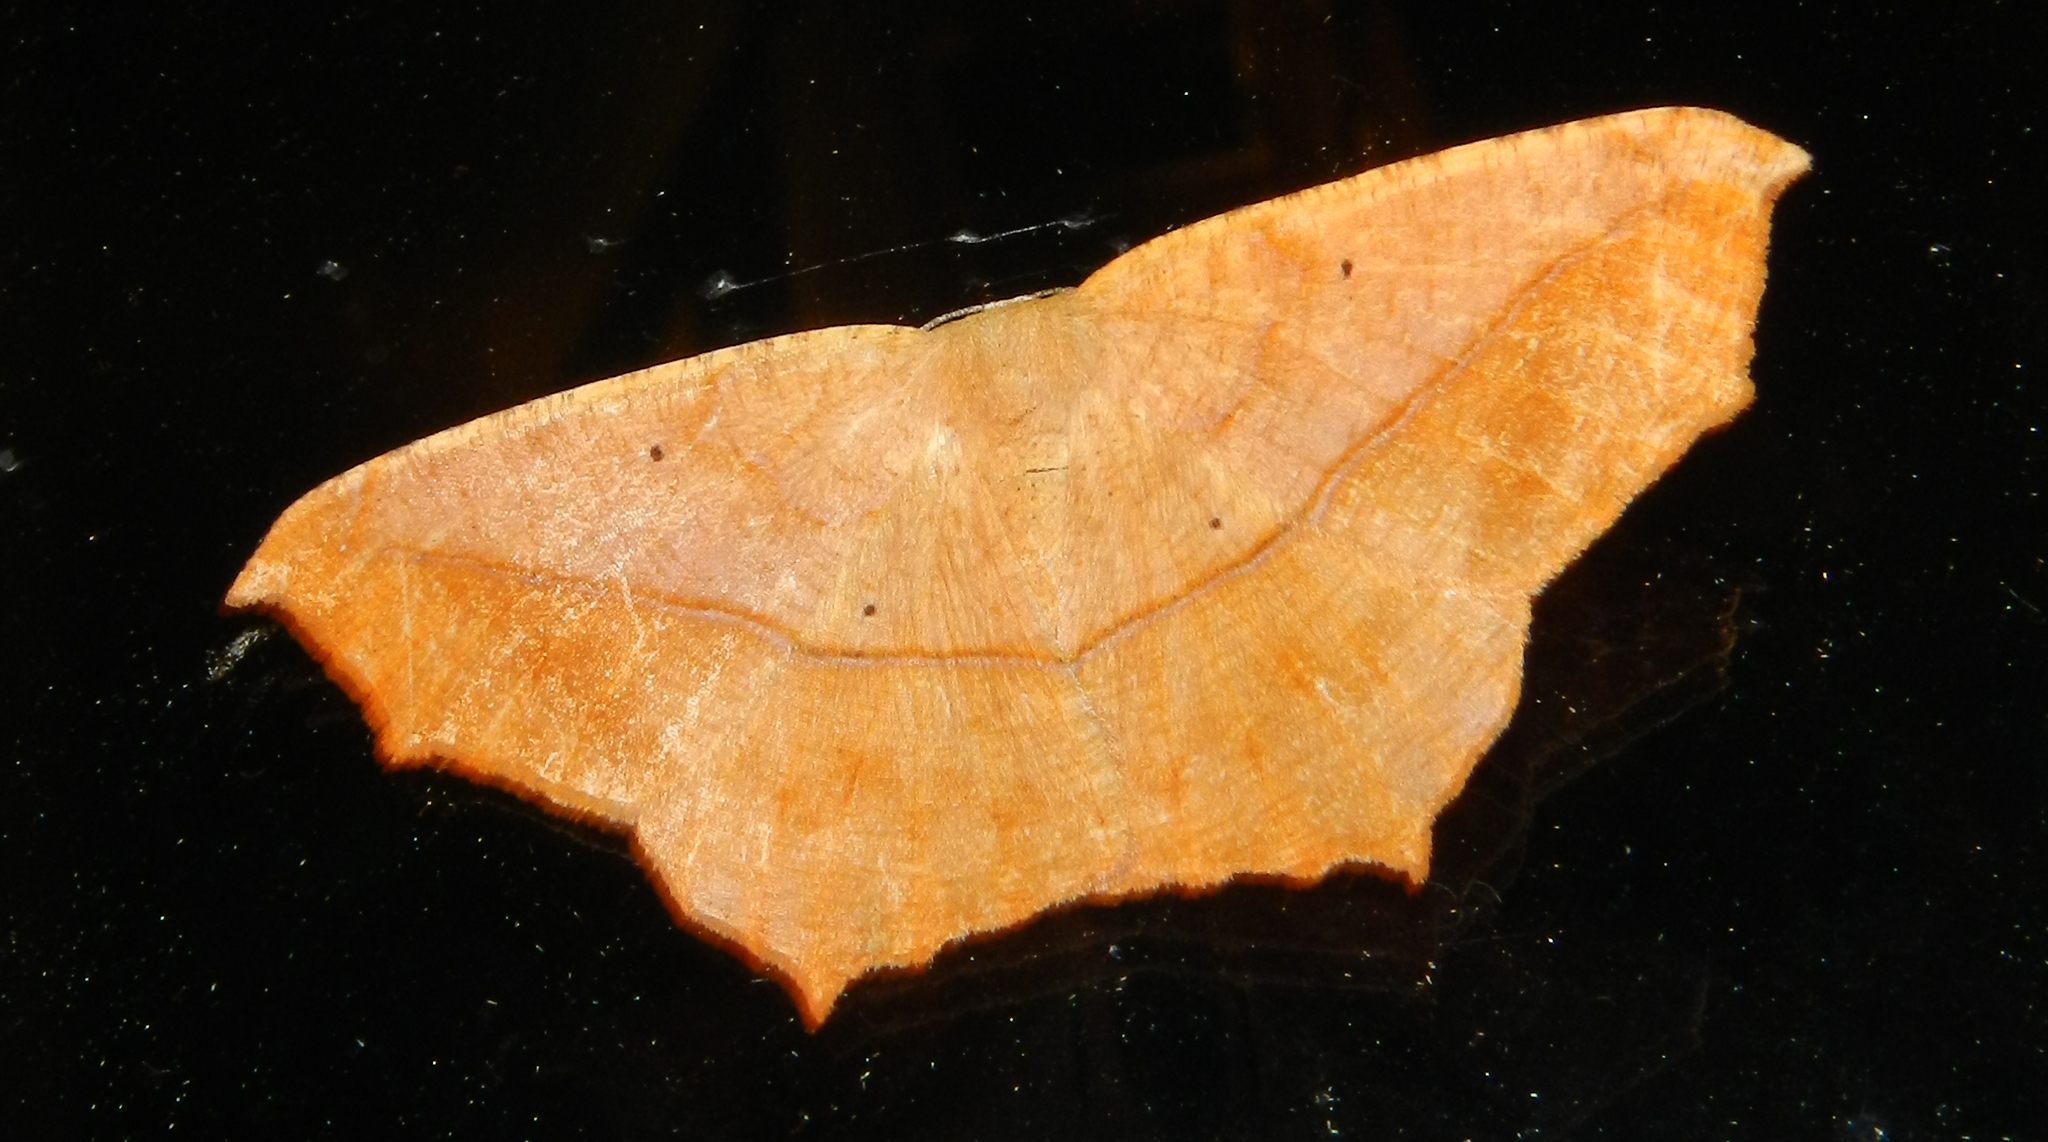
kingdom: Animalia
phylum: Arthropoda
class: Insecta
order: Lepidoptera
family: Geometridae
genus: Prochoerodes
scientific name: Prochoerodes lineola
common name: Large maple spanworm
